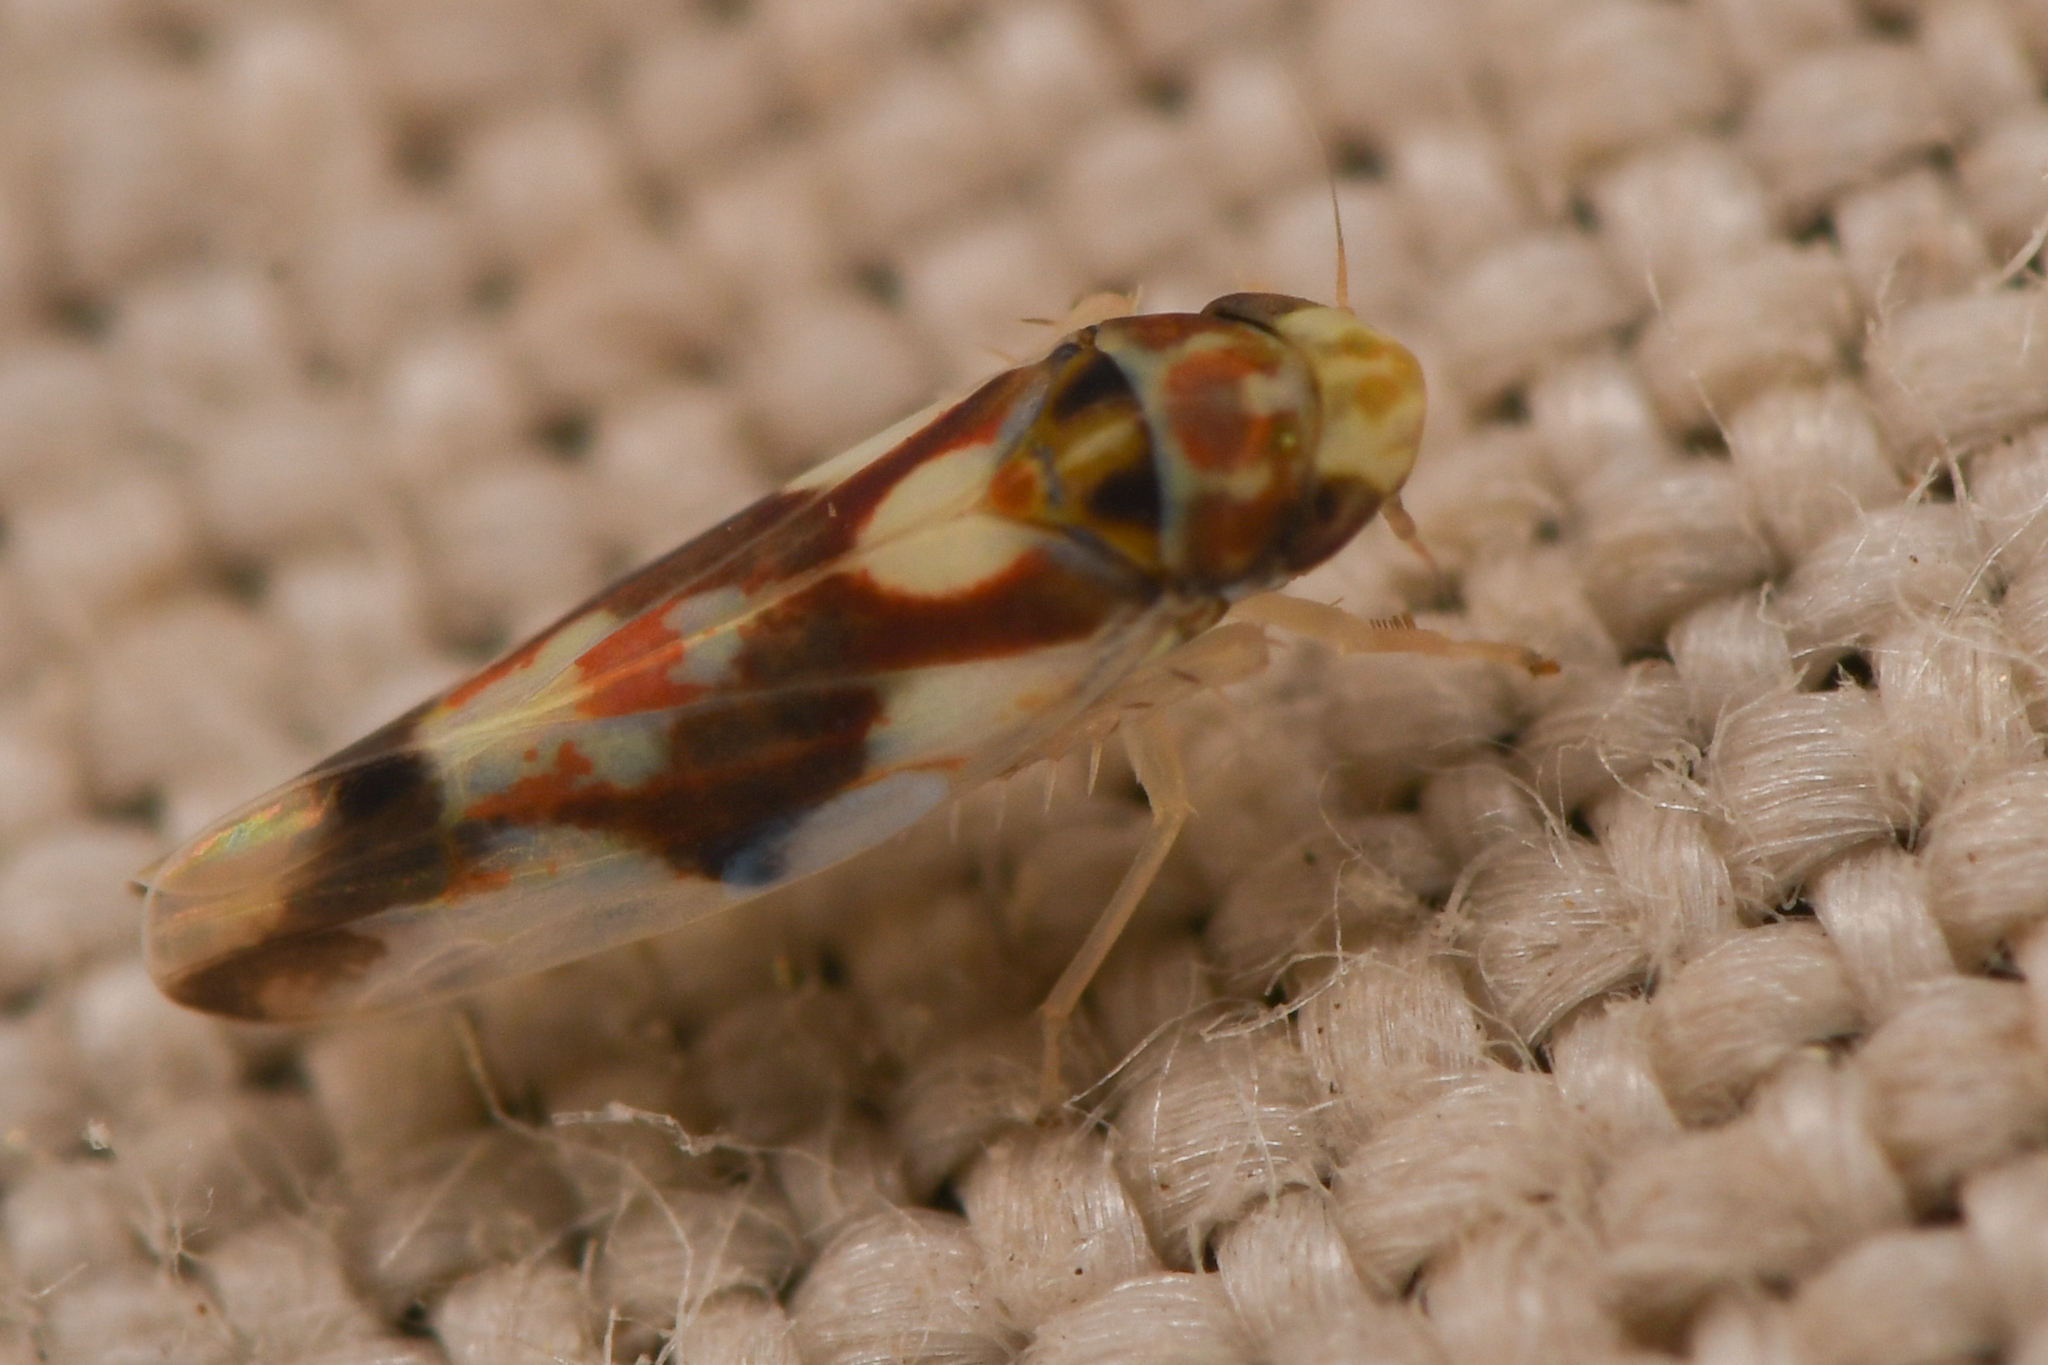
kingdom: Animalia
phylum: Arthropoda
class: Insecta
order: Hemiptera
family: Cicadellidae
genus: Erythroneura
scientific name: Erythroneura caetra
